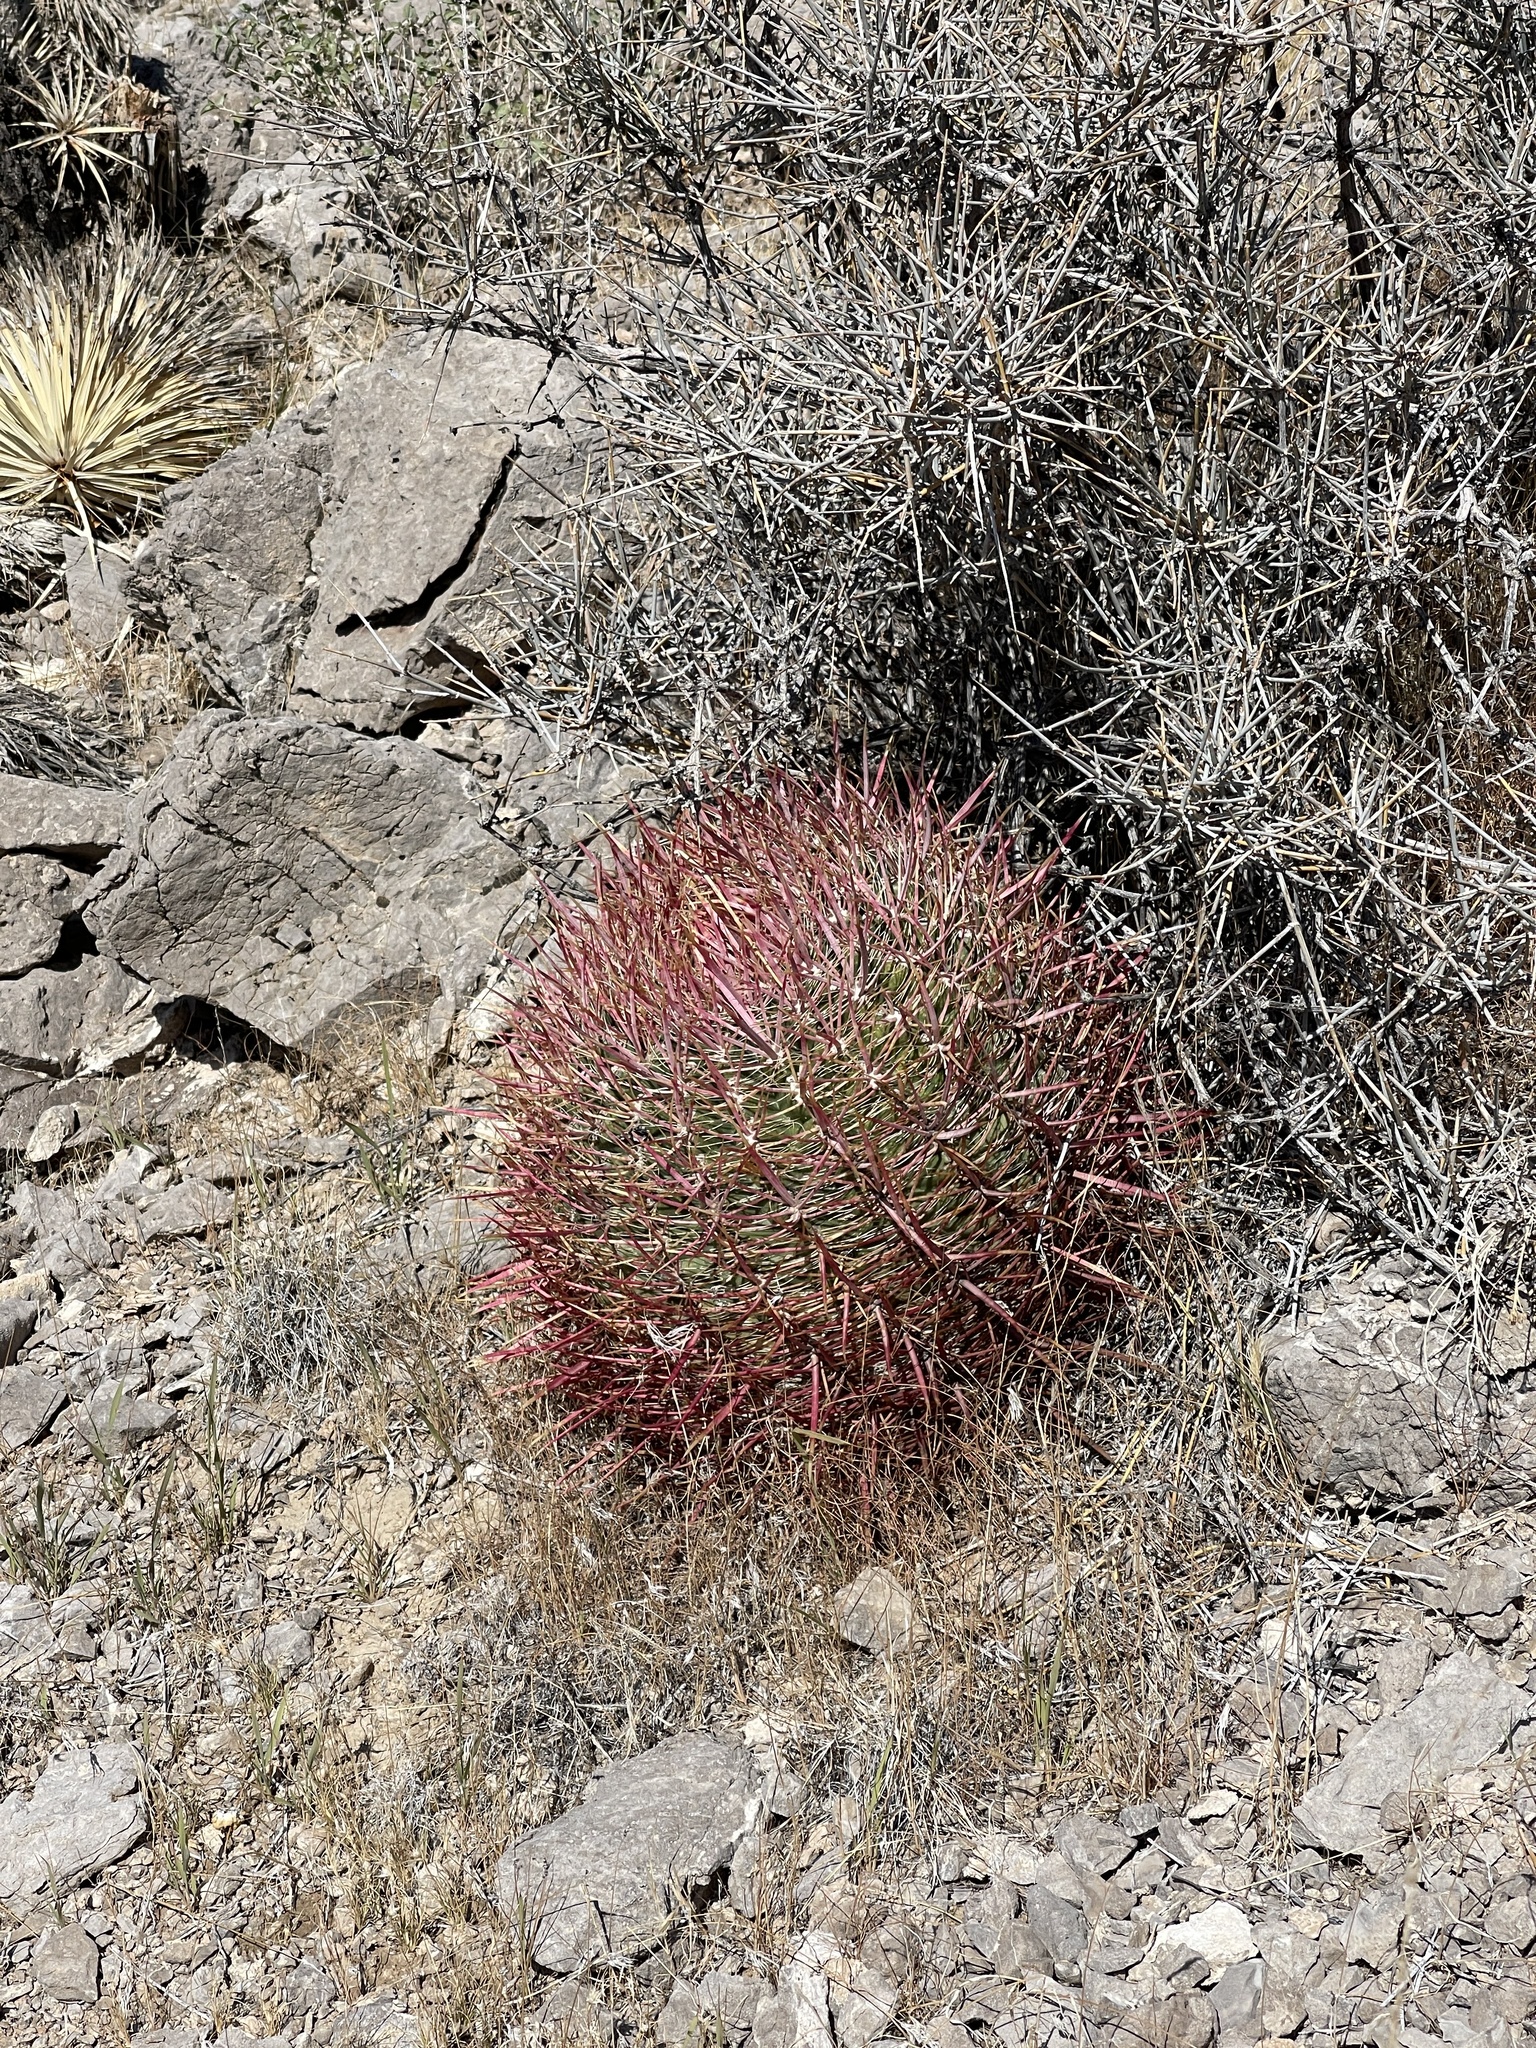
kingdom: Plantae
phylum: Tracheophyta
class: Magnoliopsida
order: Caryophyllales
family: Cactaceae
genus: Ferocactus
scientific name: Ferocactus cylindraceus
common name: California barrel cactus
